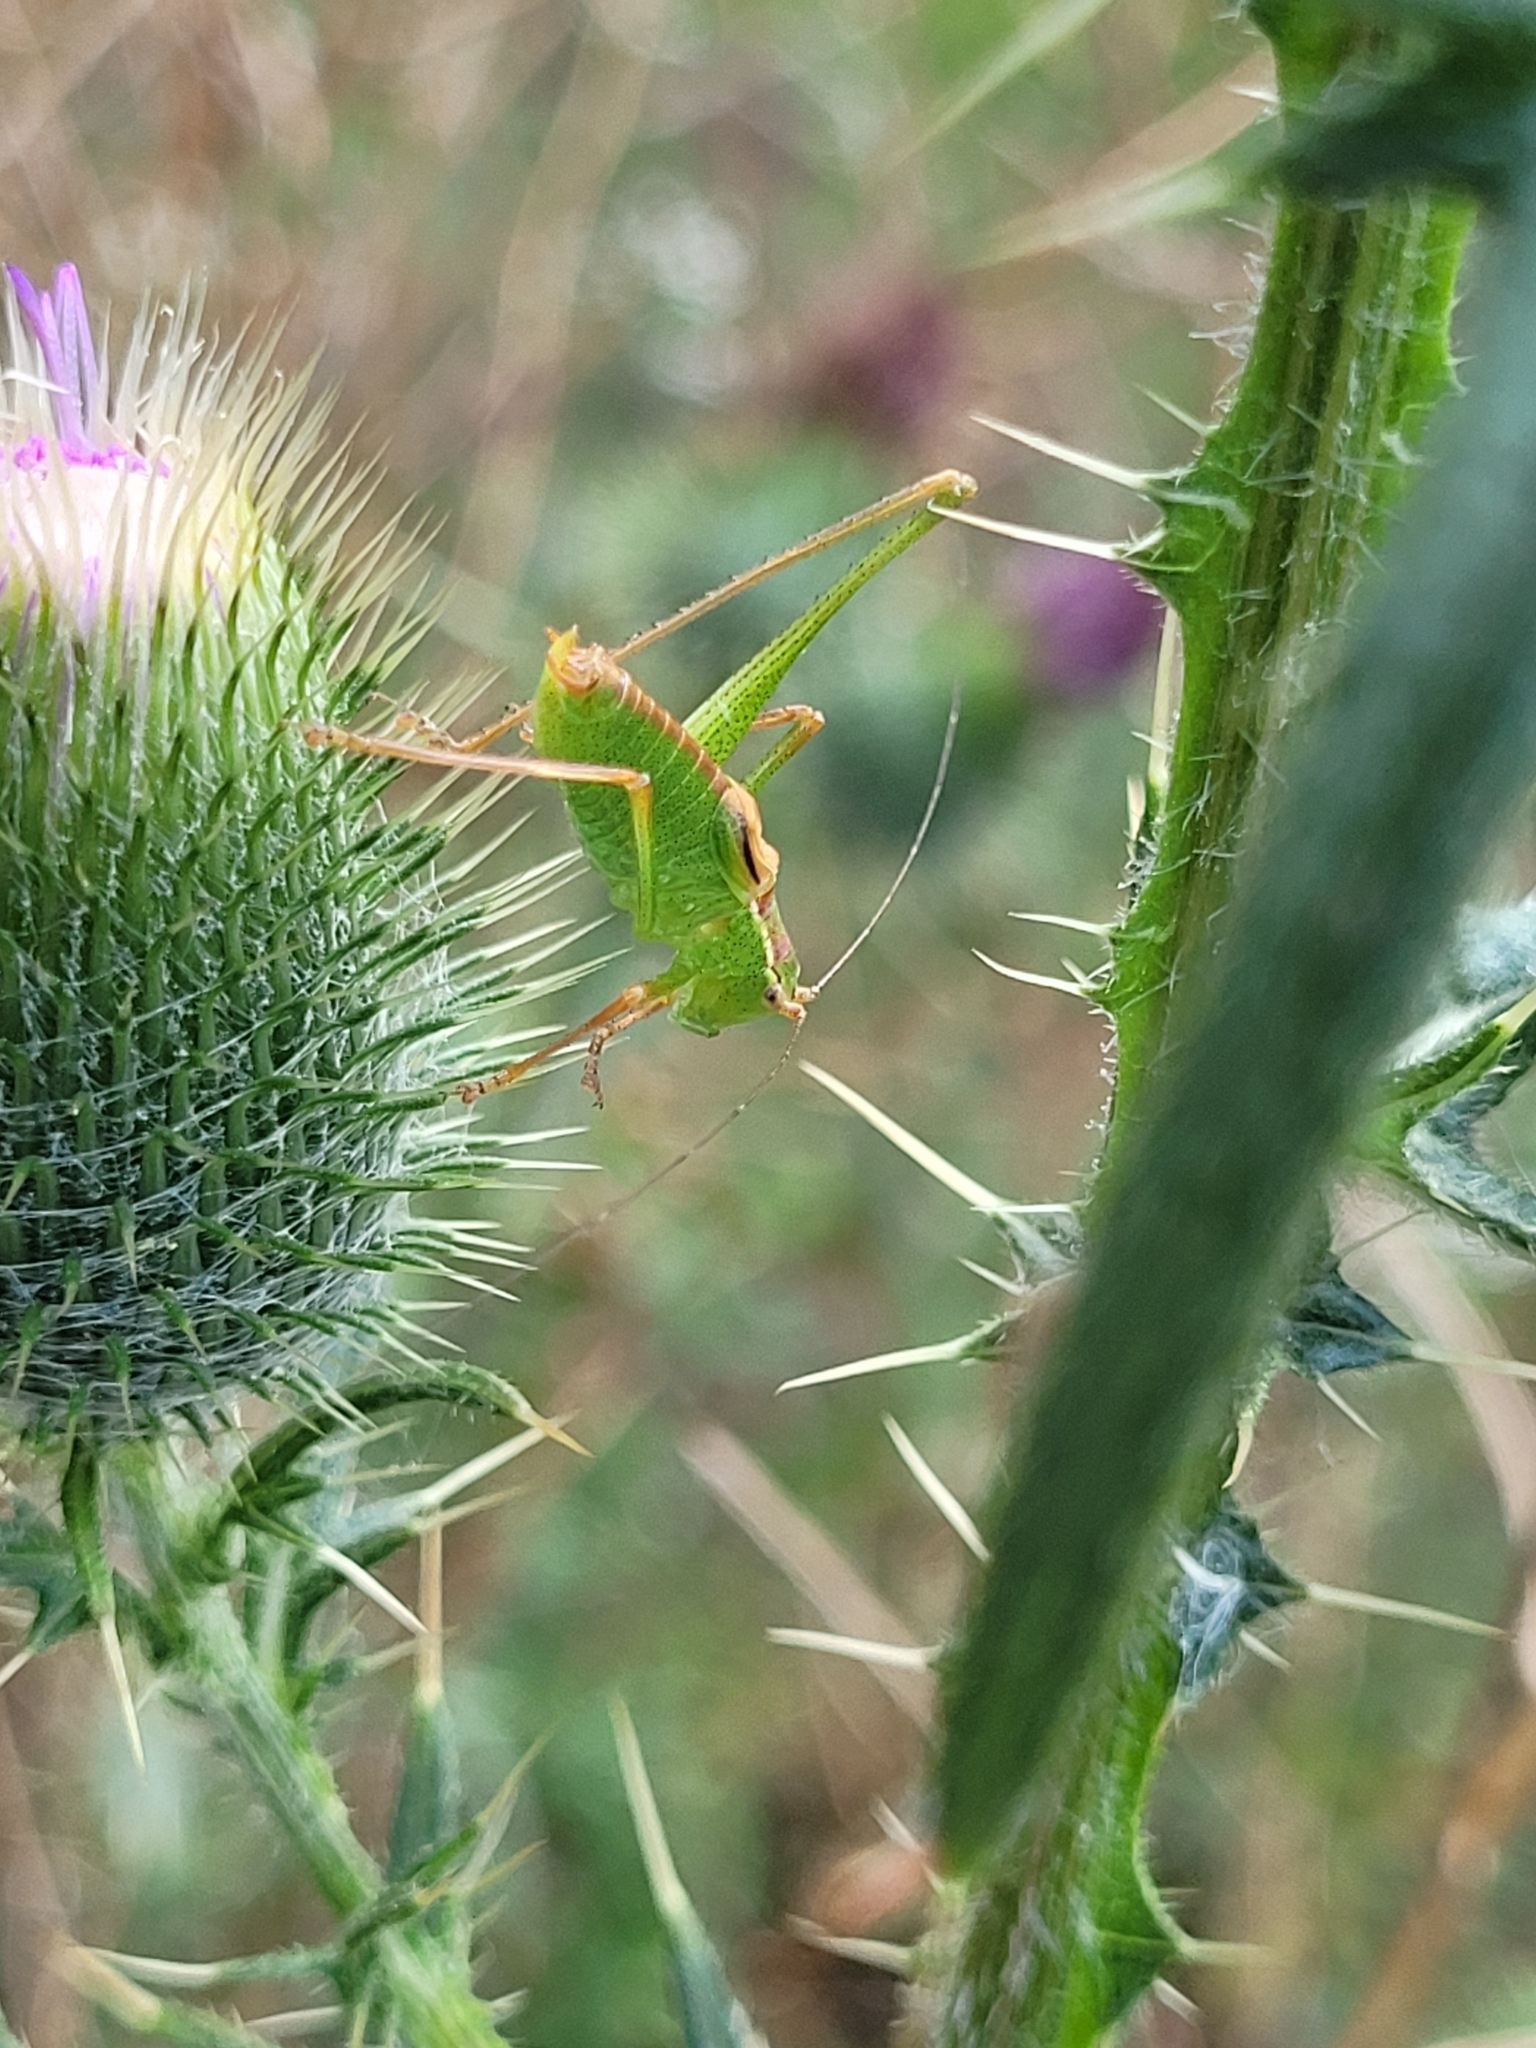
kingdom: Animalia
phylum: Arthropoda
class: Insecta
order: Orthoptera
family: Tettigoniidae
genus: Leptophyes
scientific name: Leptophyes punctatissima
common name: Speckled bush-cricket
